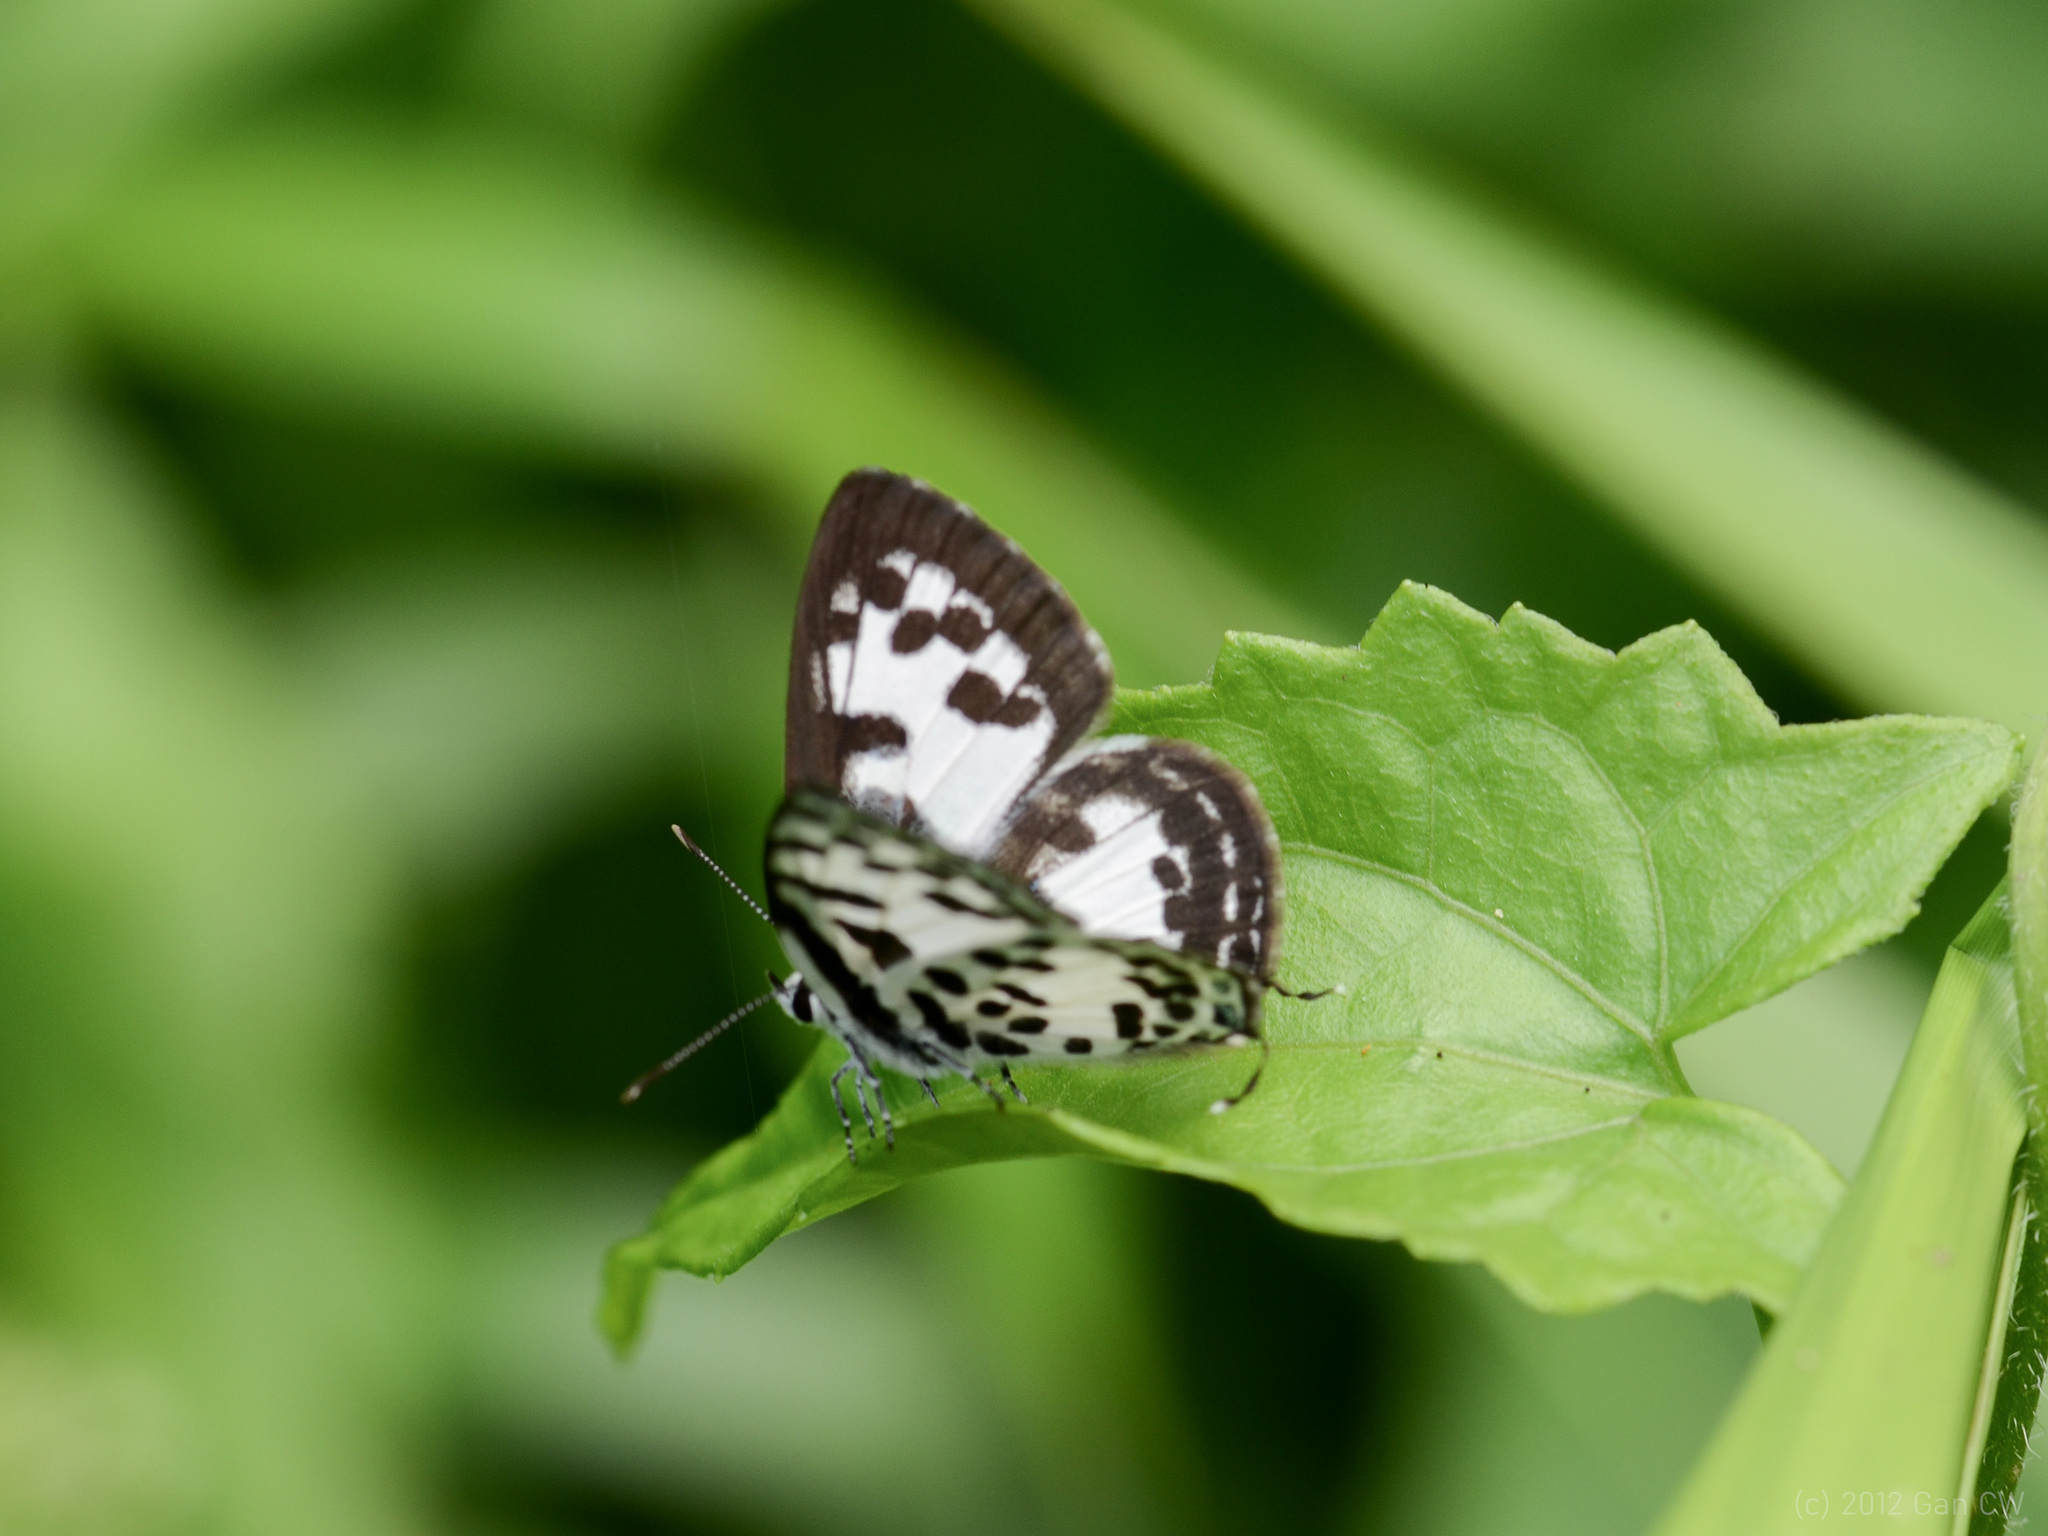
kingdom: Animalia
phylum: Arthropoda
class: Insecta
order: Lepidoptera
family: Lycaenidae
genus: Castalius
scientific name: Castalius rosimon
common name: Common pierrot
